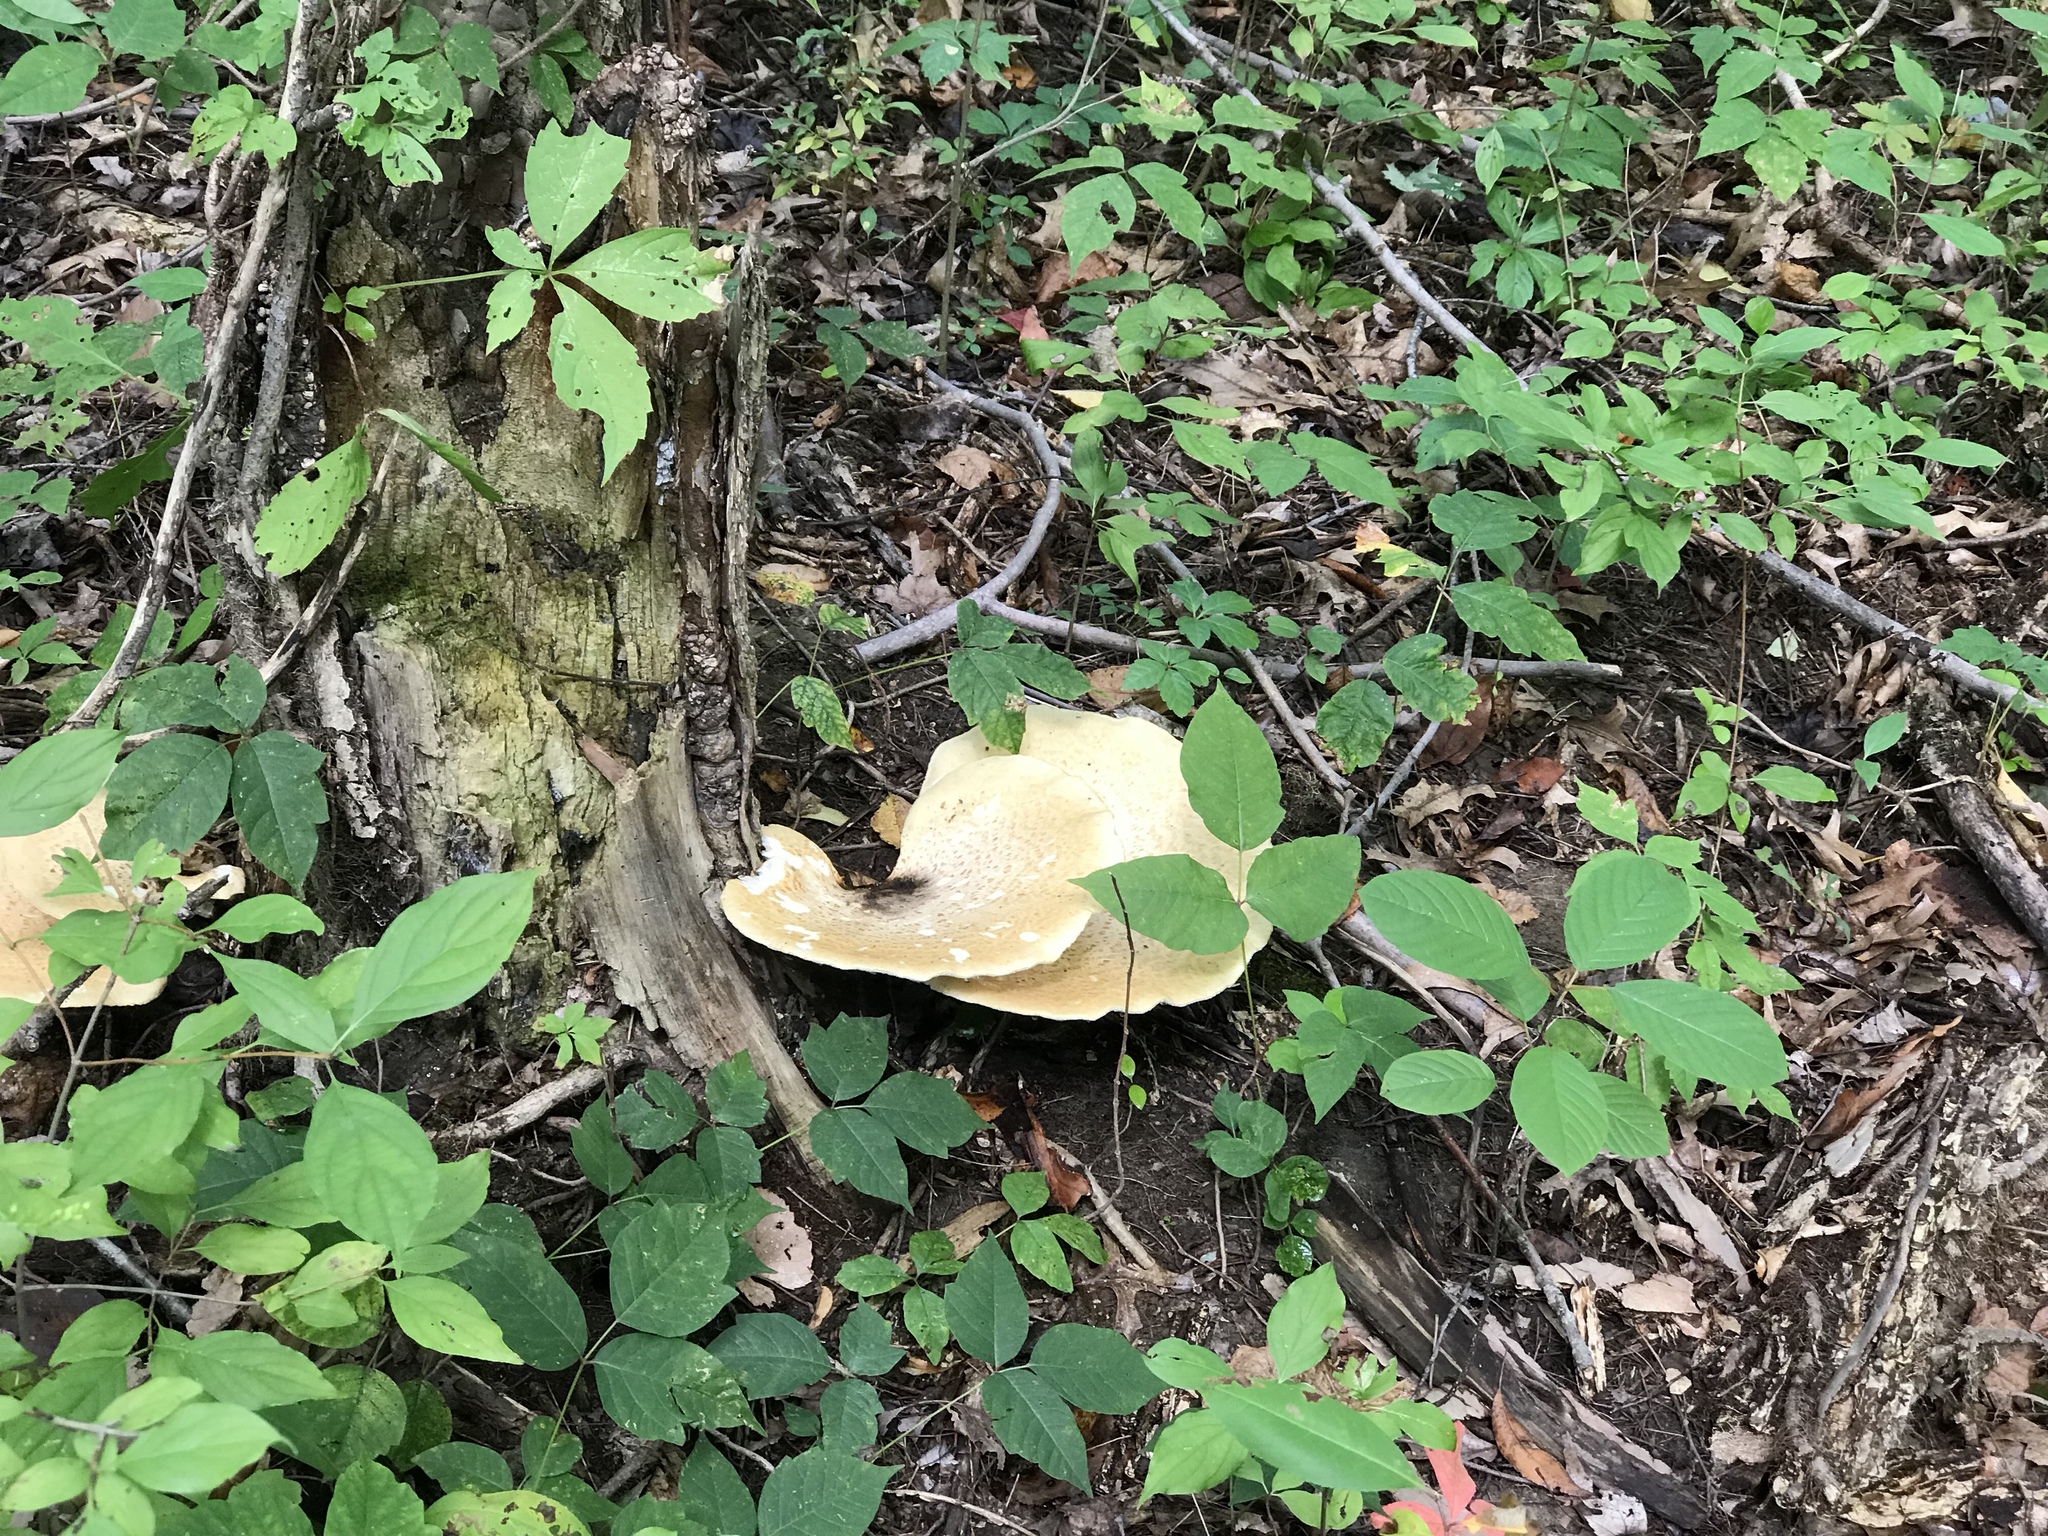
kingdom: Fungi
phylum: Basidiomycota
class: Agaricomycetes
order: Polyporales
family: Polyporaceae
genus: Cerioporus
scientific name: Cerioporus squamosus
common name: Dryad's saddle
